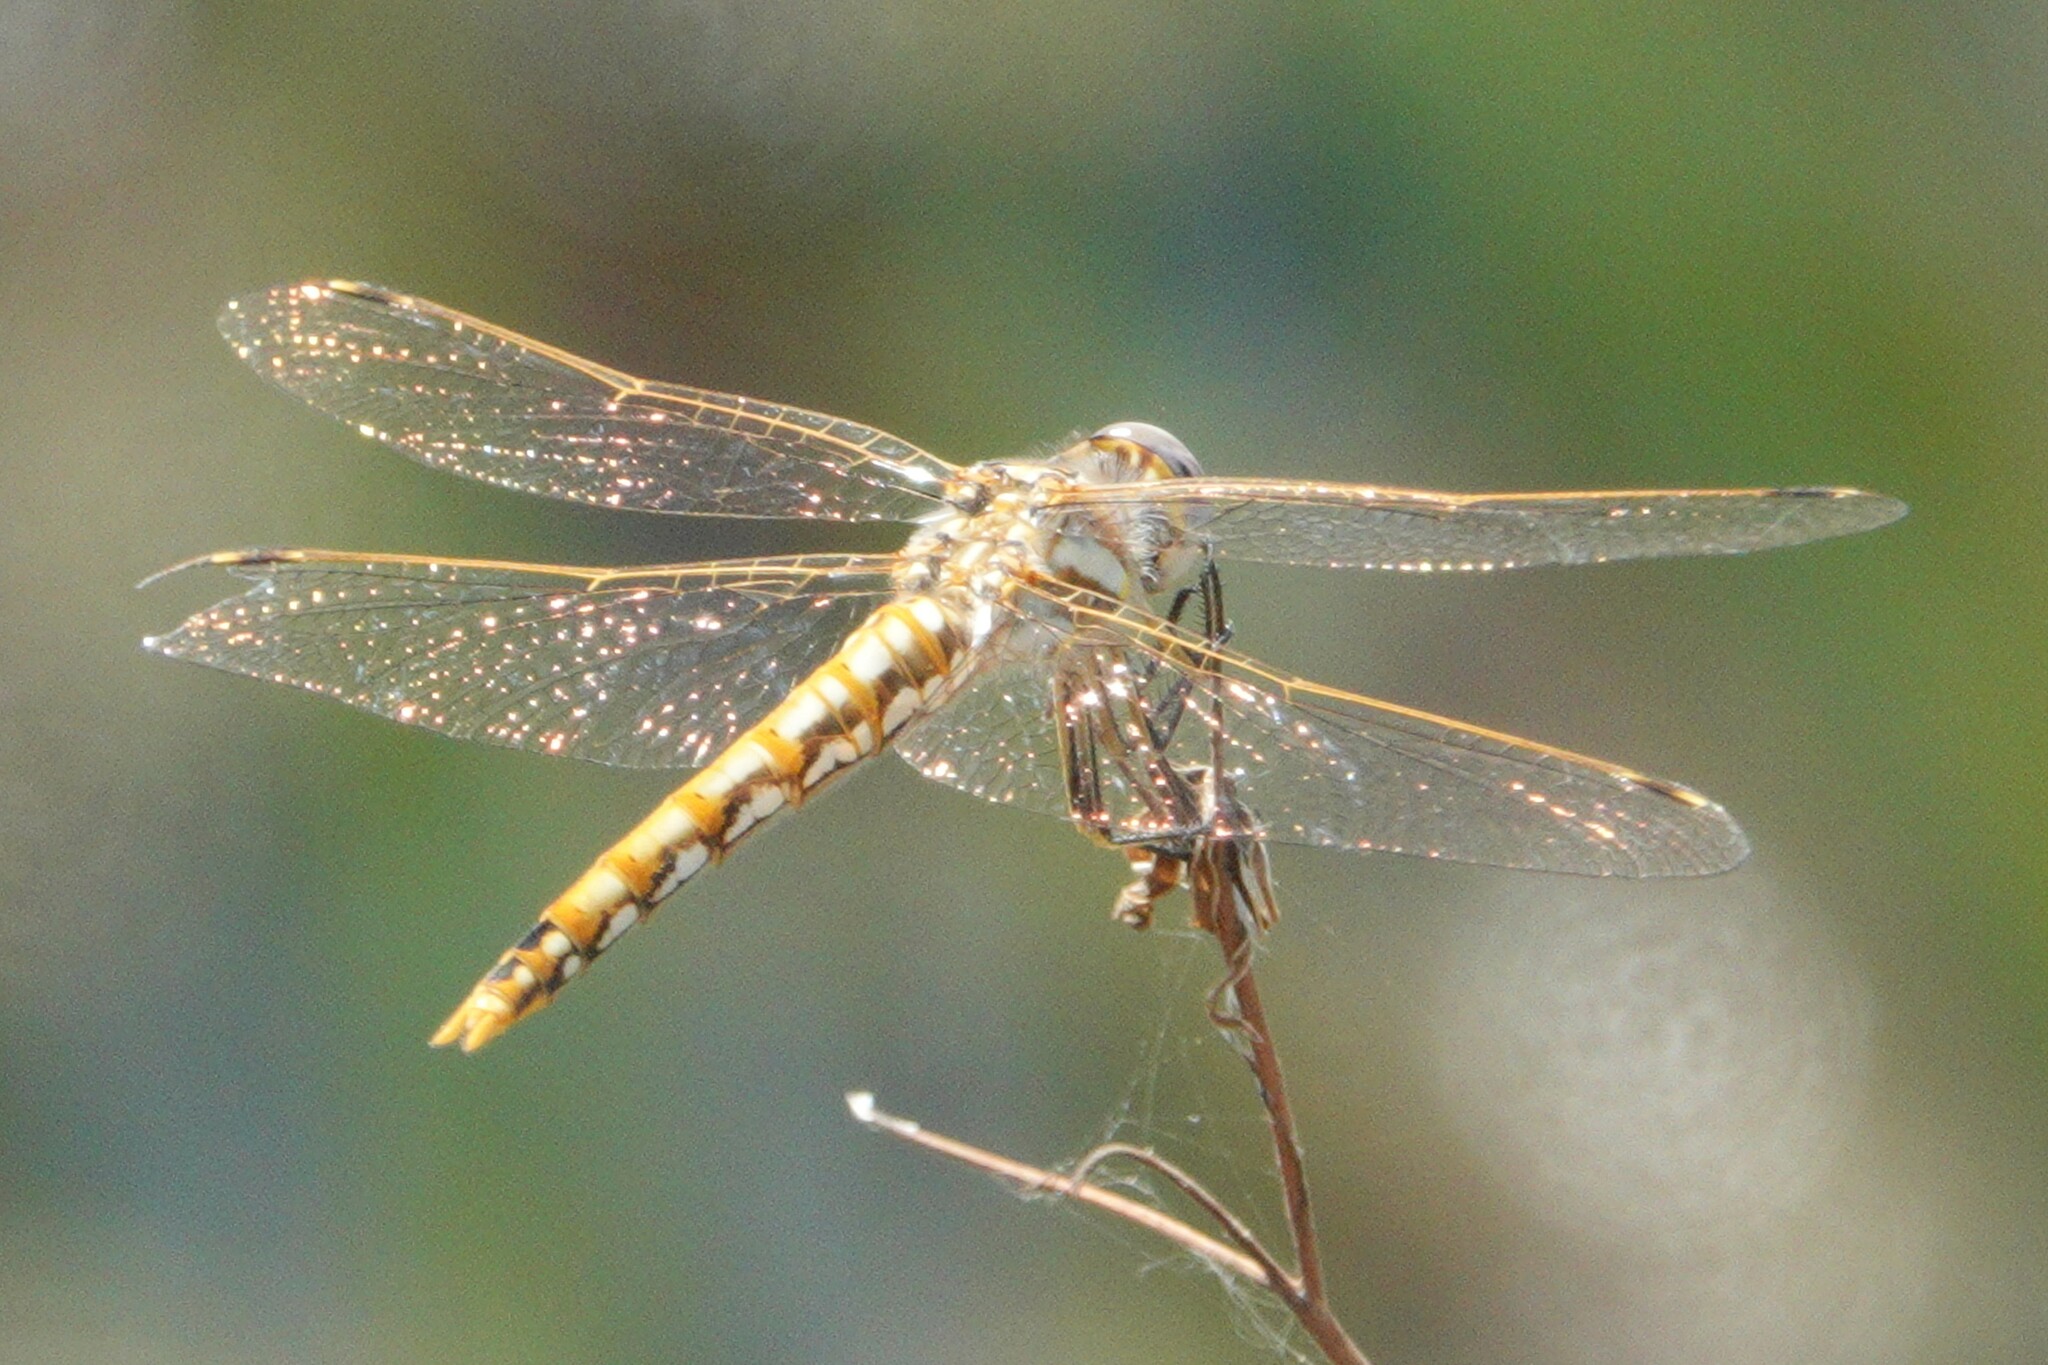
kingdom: Animalia
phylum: Arthropoda
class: Insecta
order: Odonata
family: Libellulidae
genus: Sympetrum
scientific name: Sympetrum corruptum
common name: Variegated meadowhawk
